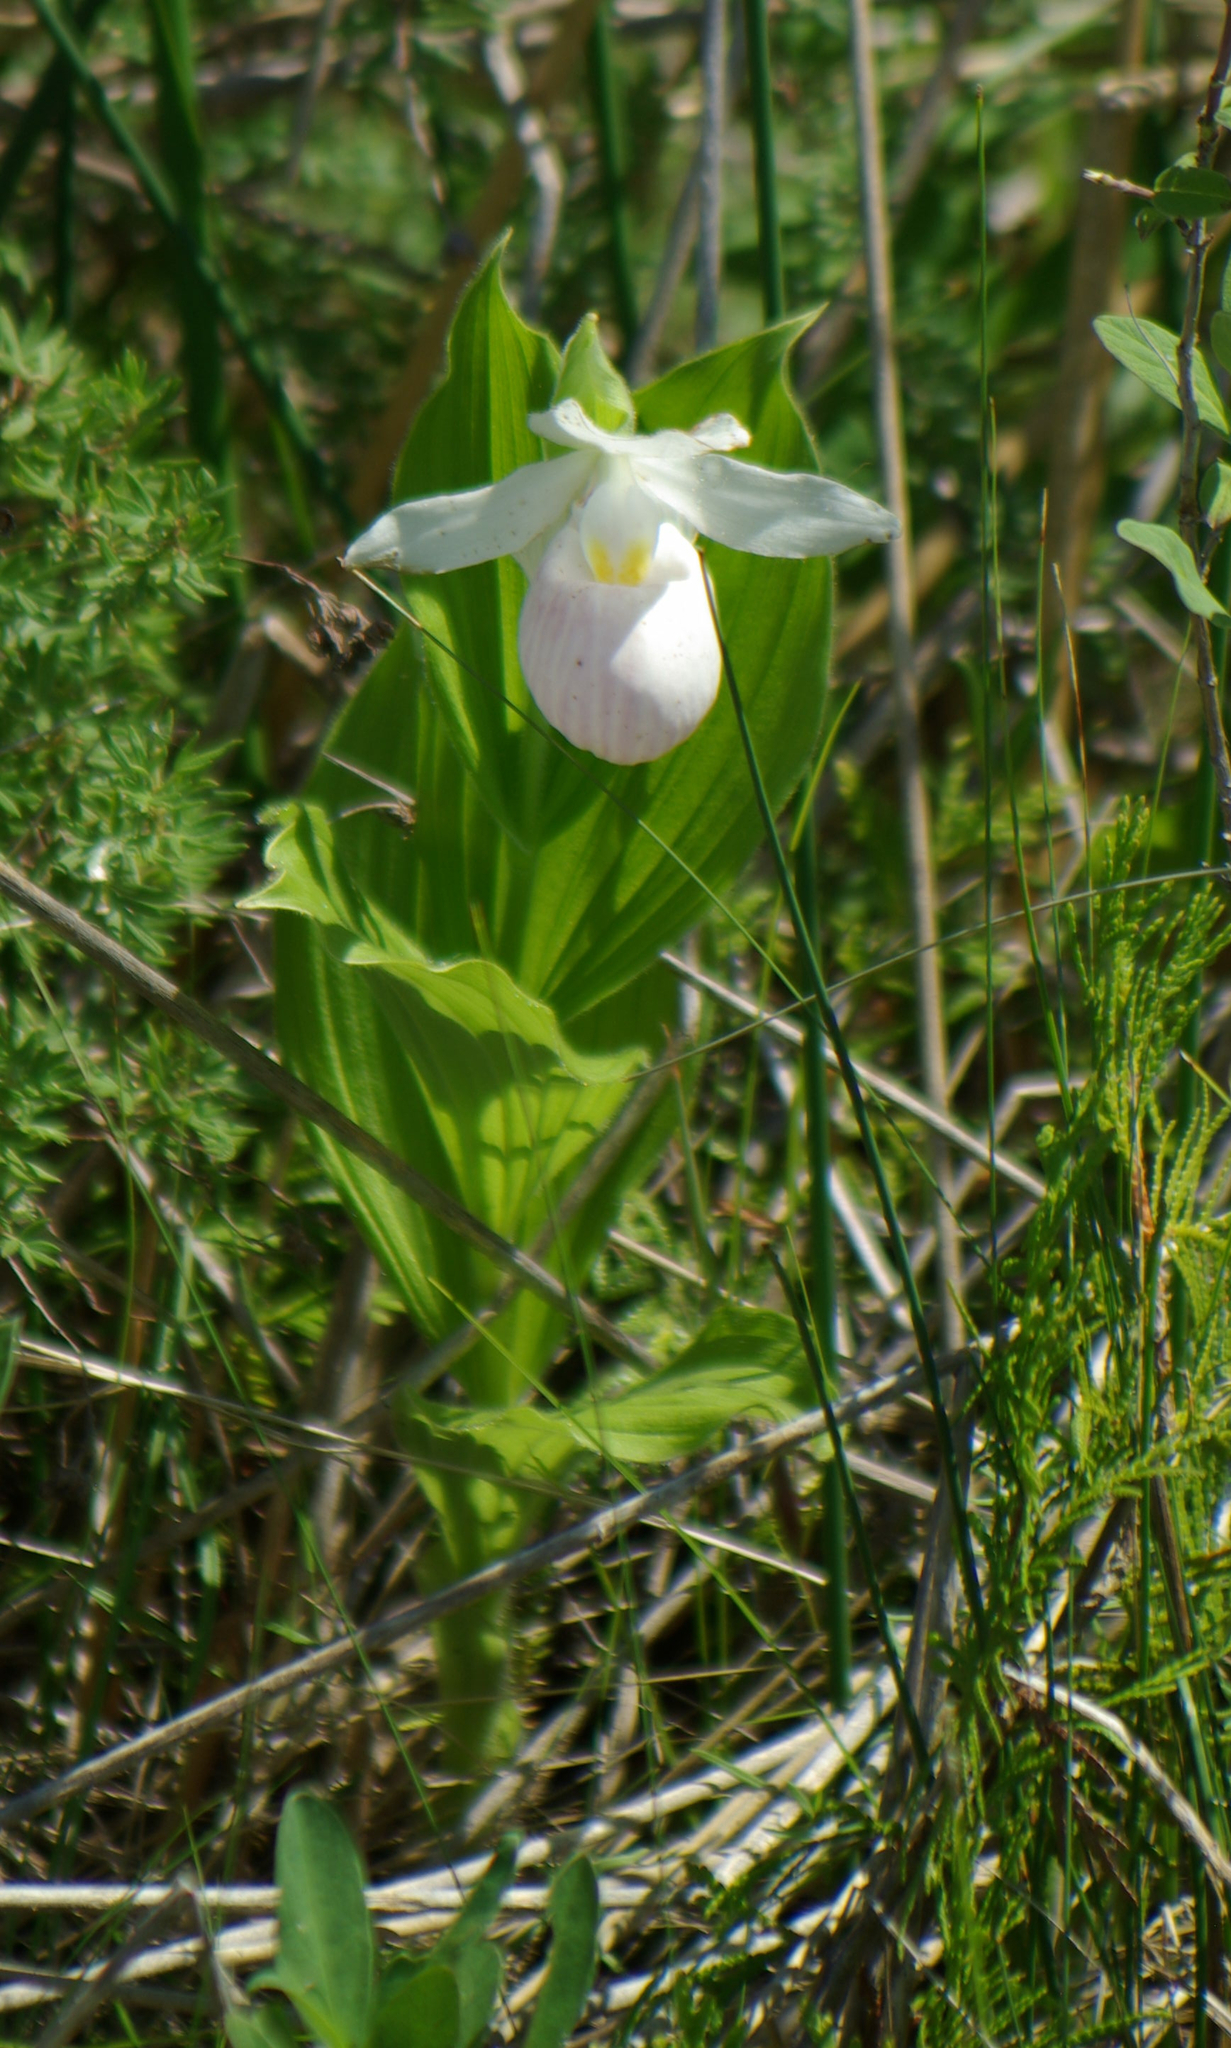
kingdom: Plantae
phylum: Tracheophyta
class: Liliopsida
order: Asparagales
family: Orchidaceae
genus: Cypripedium
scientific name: Cypripedium reginae
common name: Queen lady's-slipper
